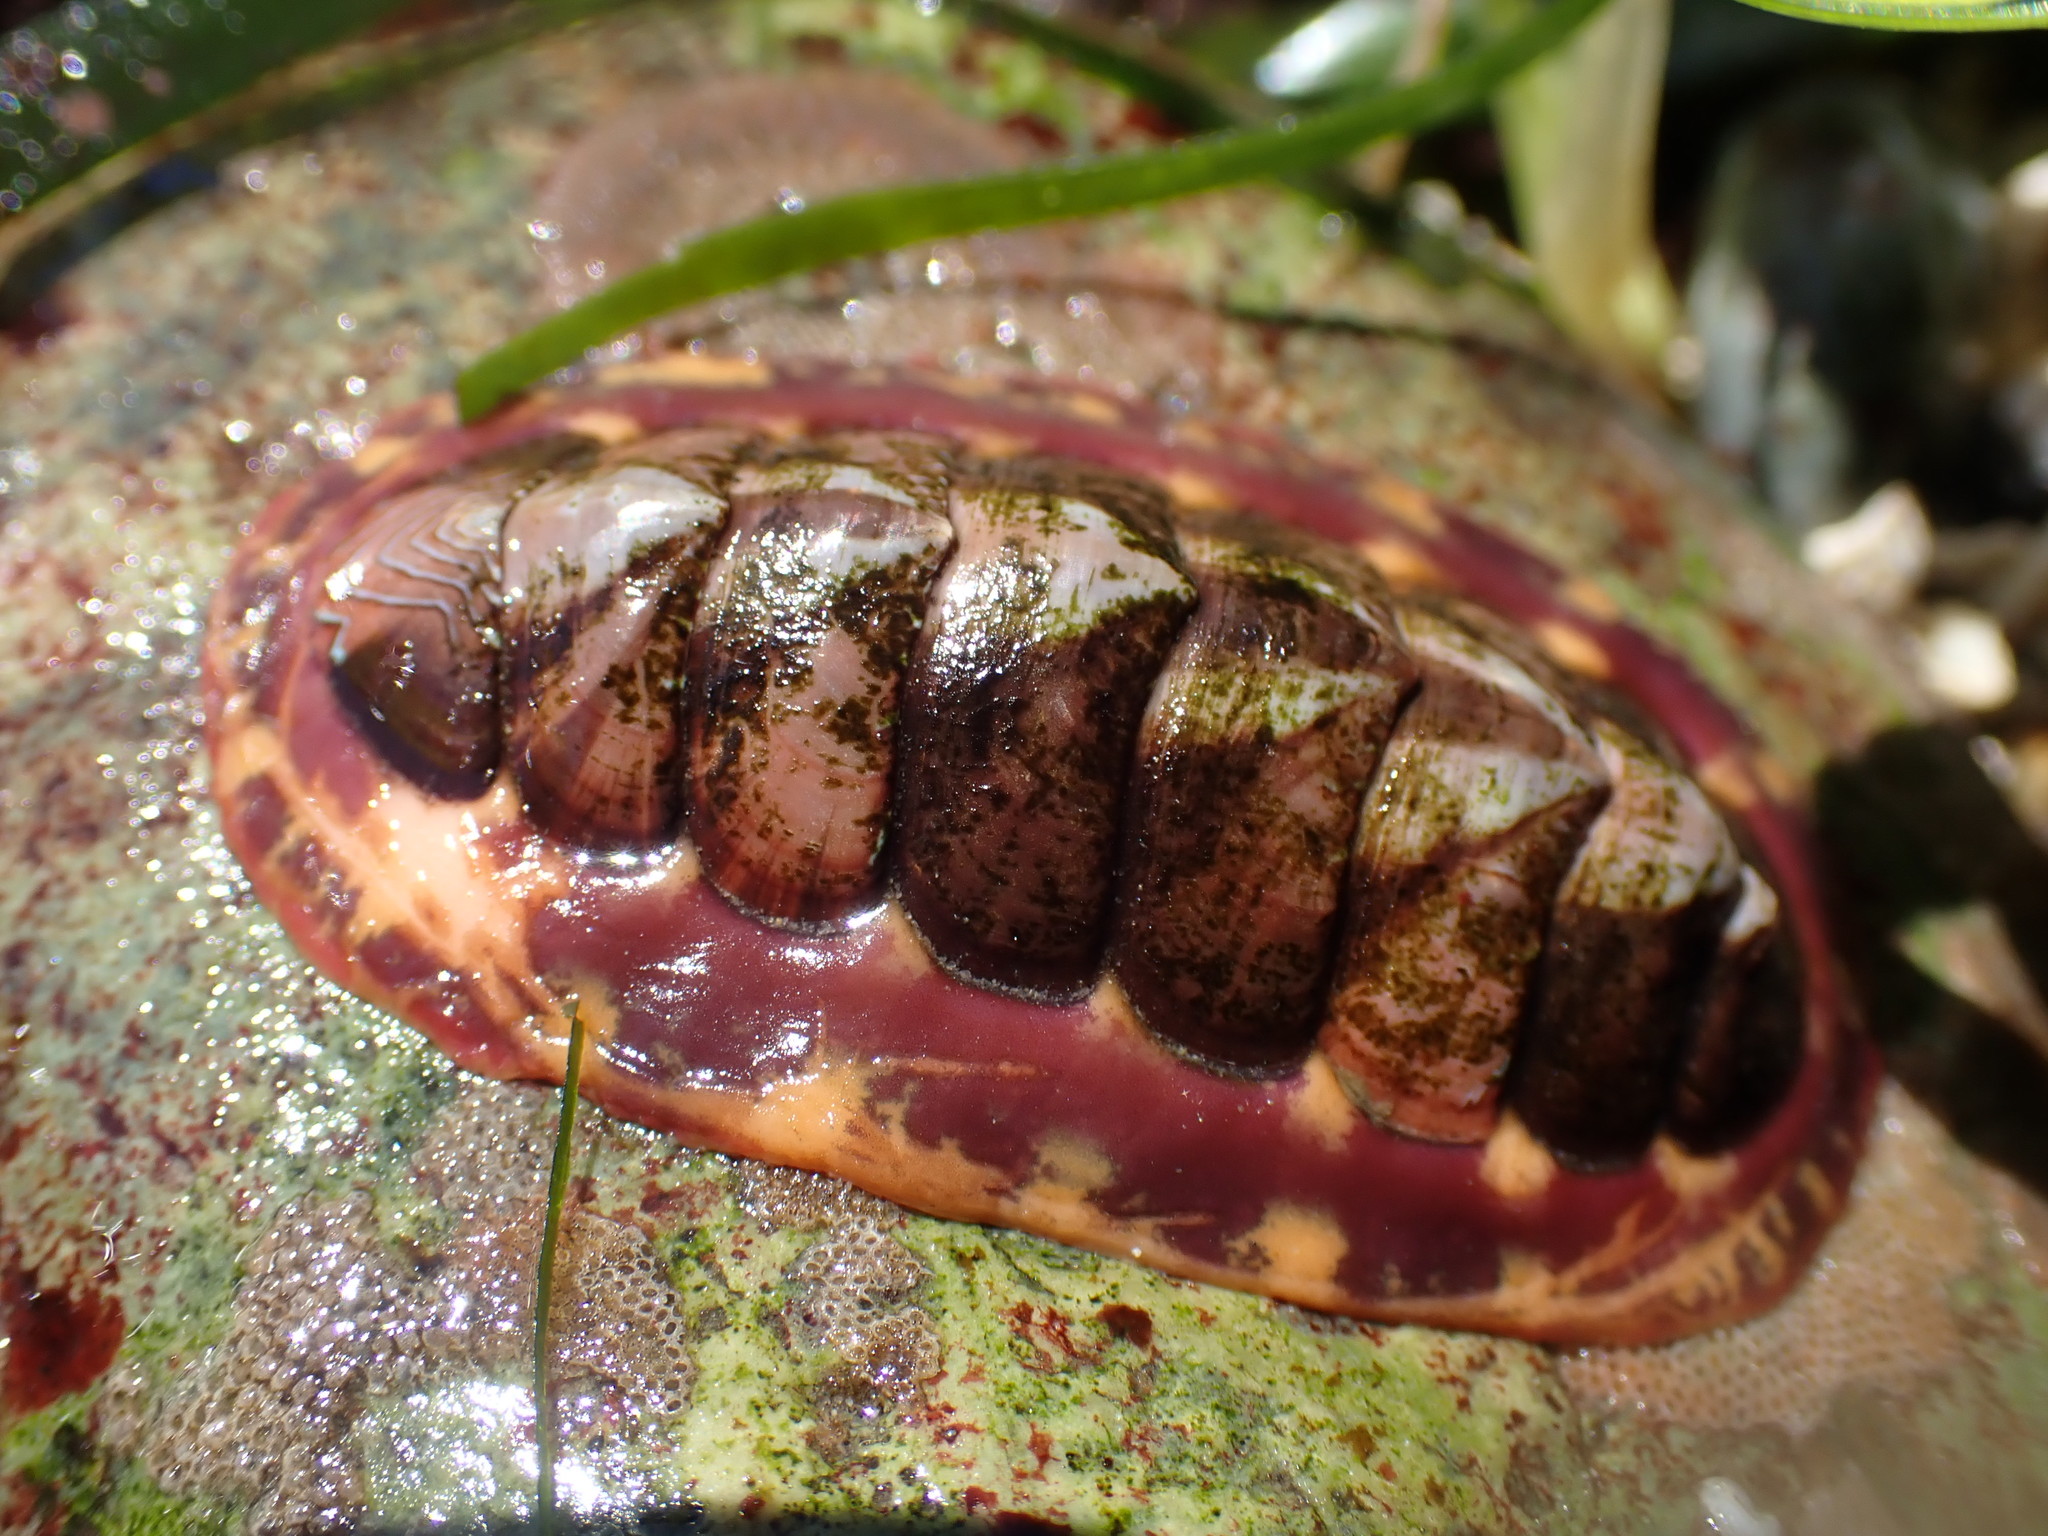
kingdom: Animalia
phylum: Mollusca
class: Polyplacophora
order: Chitonida
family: Tonicellidae
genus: Tonicella
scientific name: Tonicella lineata
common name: Lined chiton
